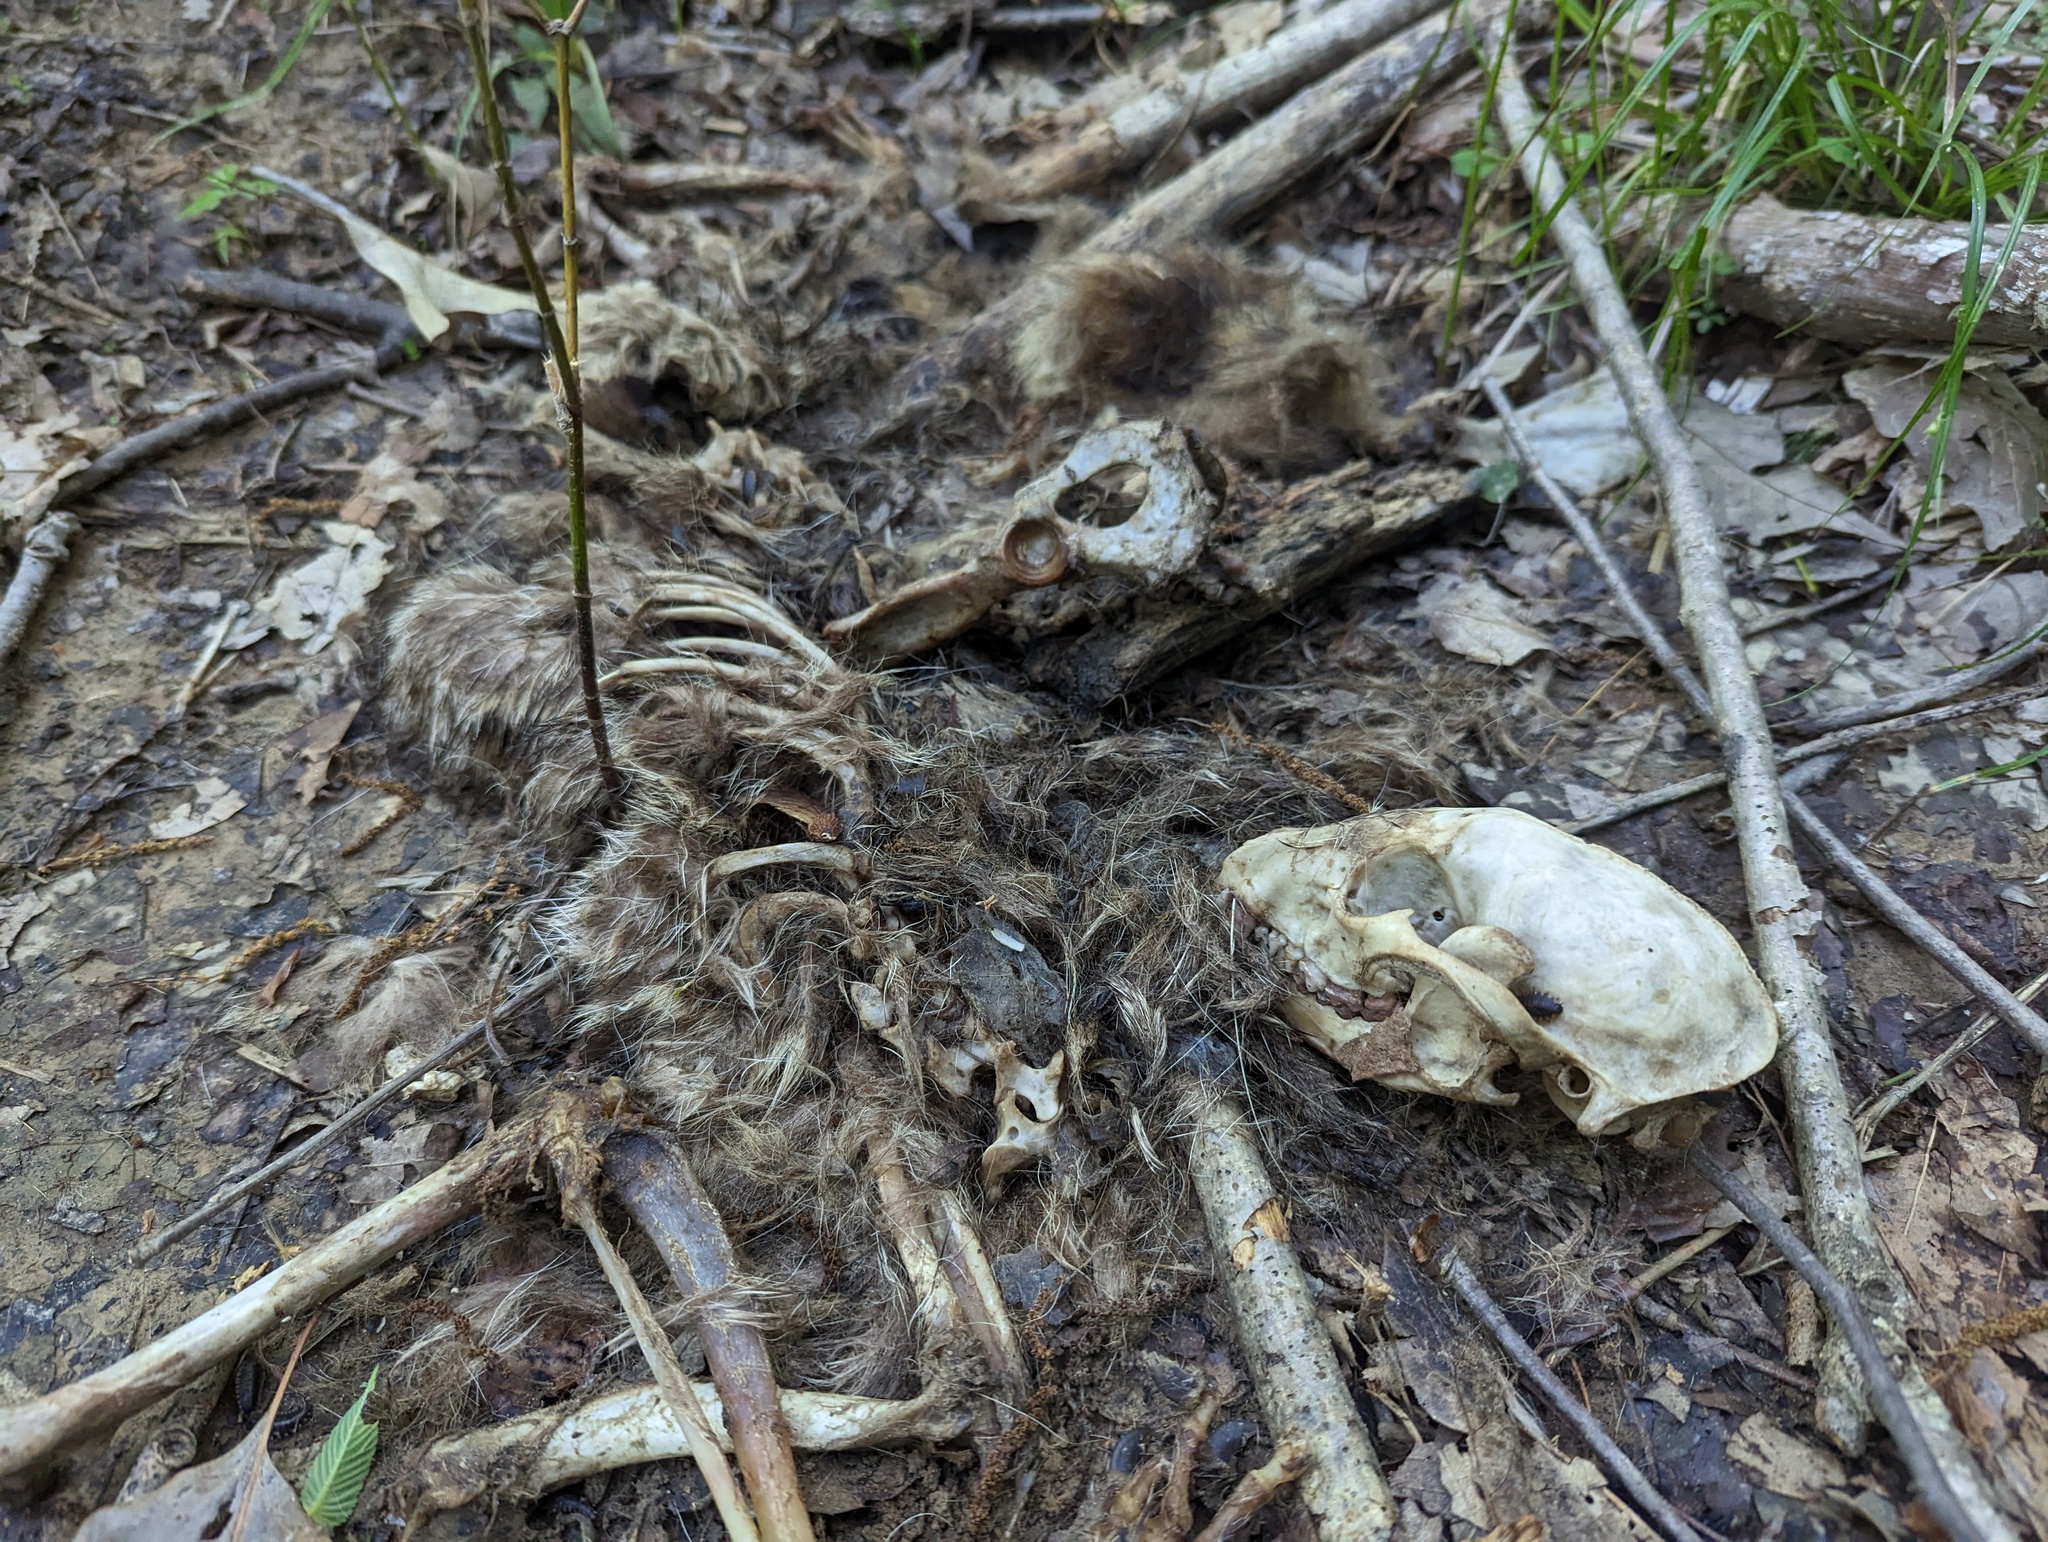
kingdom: Animalia
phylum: Chordata
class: Mammalia
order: Carnivora
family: Procyonidae
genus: Procyon
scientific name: Procyon lotor
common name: Raccoon
